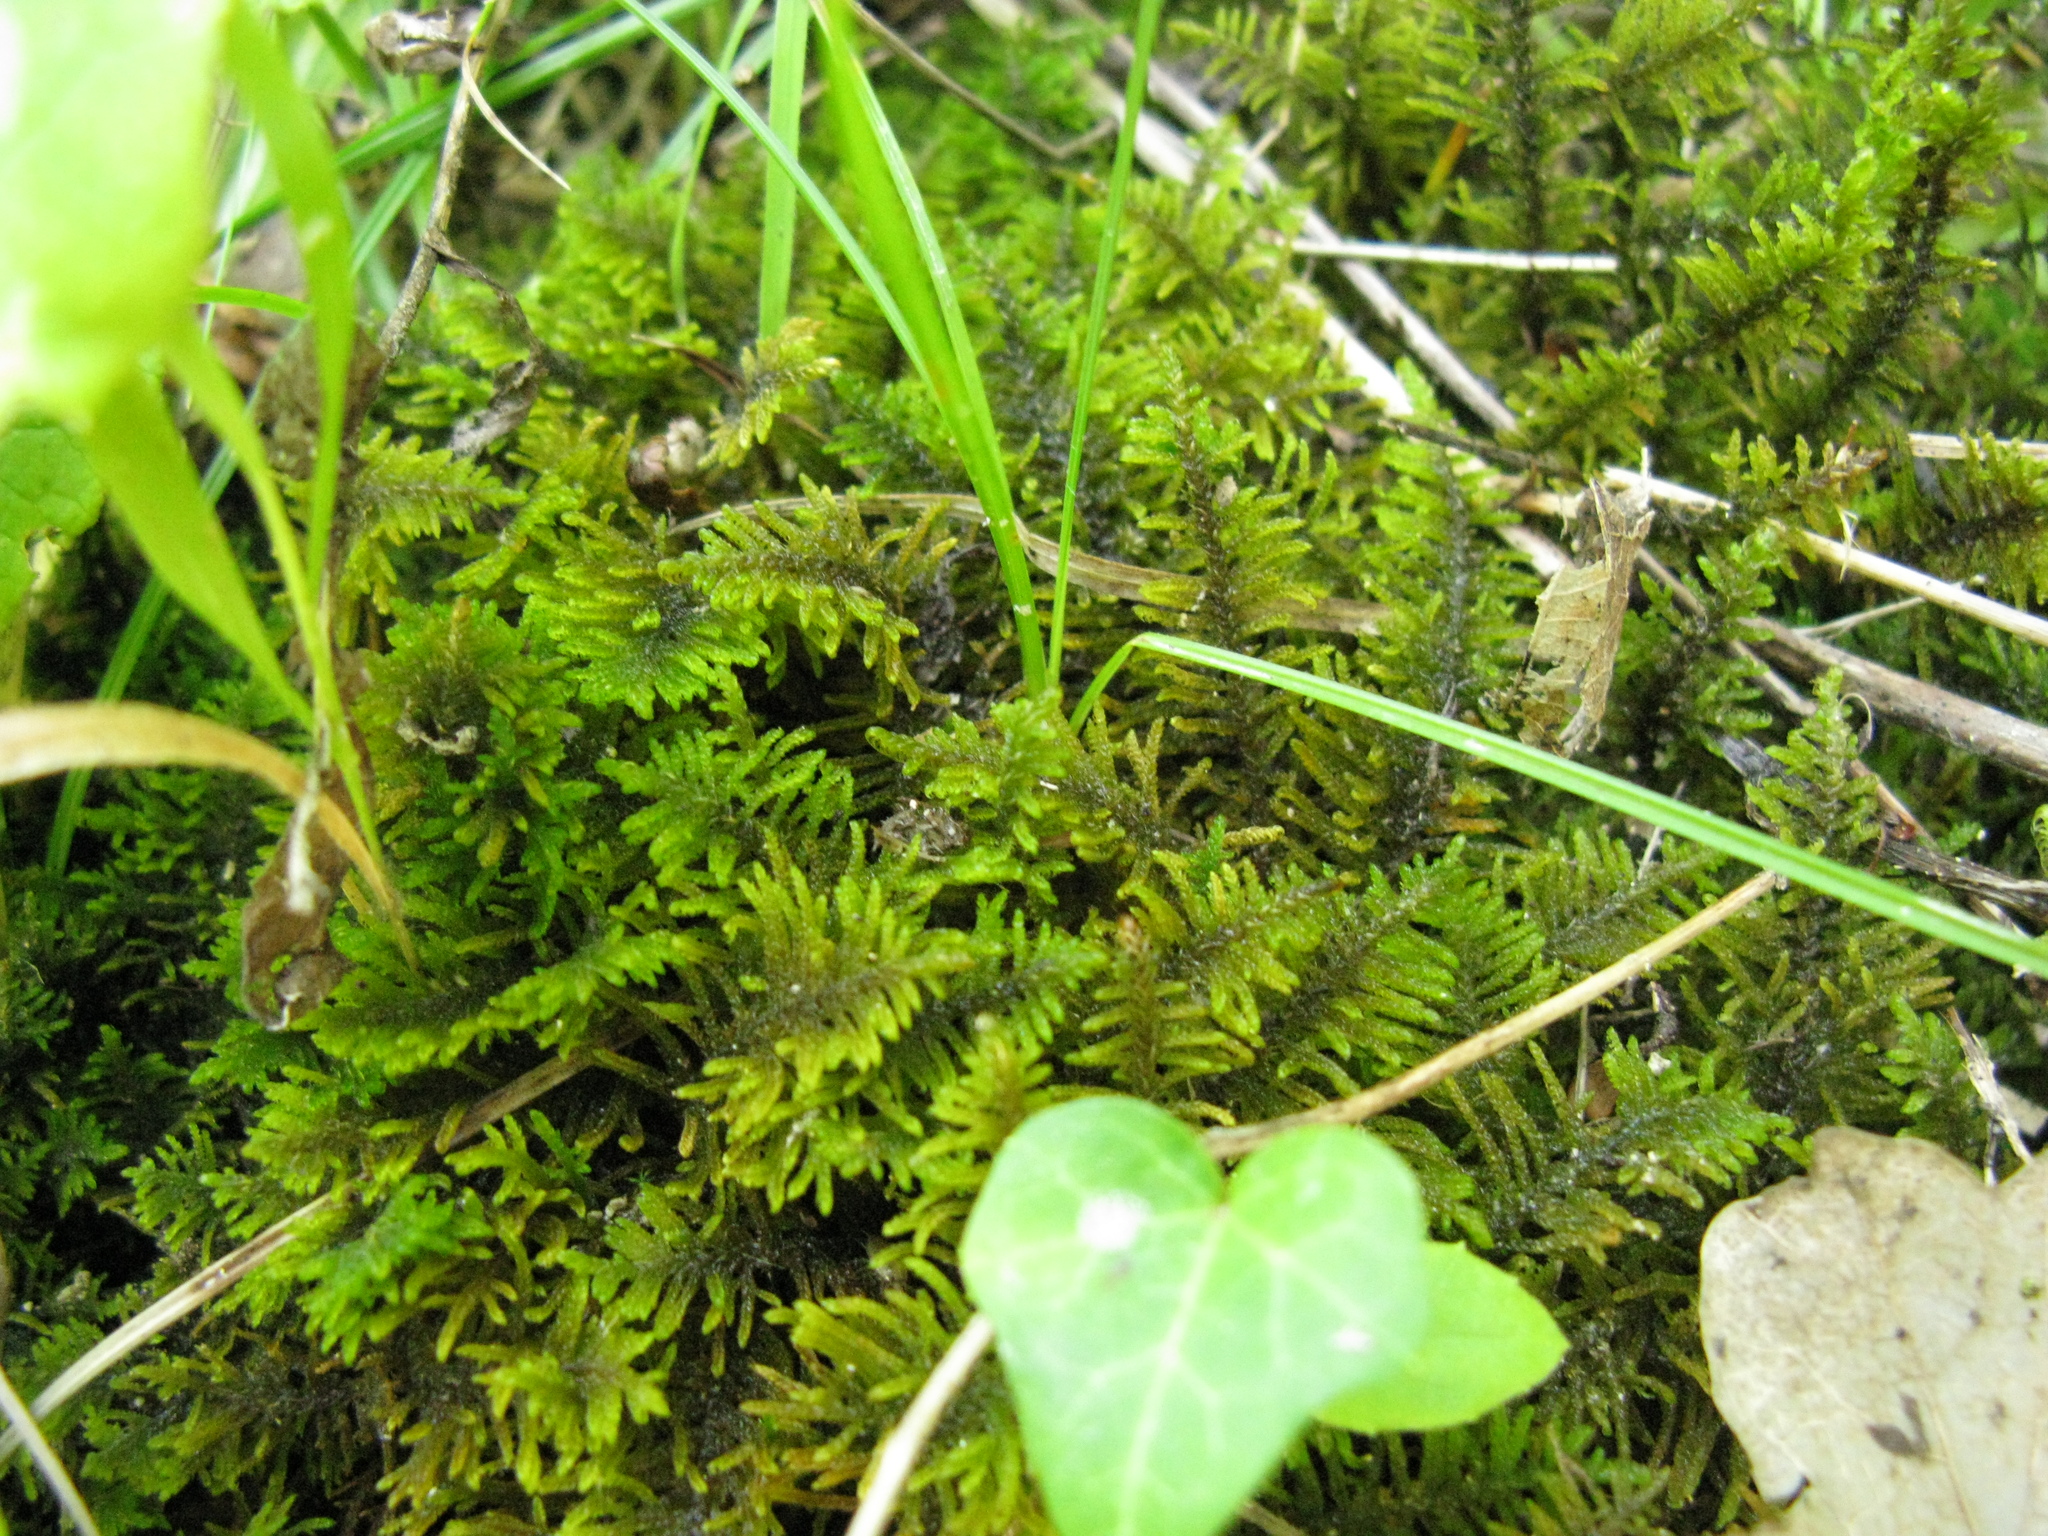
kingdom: Plantae
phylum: Bryophyta
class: Bryopsida
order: Hypnales
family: Amblystegiaceae
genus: Palustriella
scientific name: Palustriella commutata
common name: Curled hook-moss
